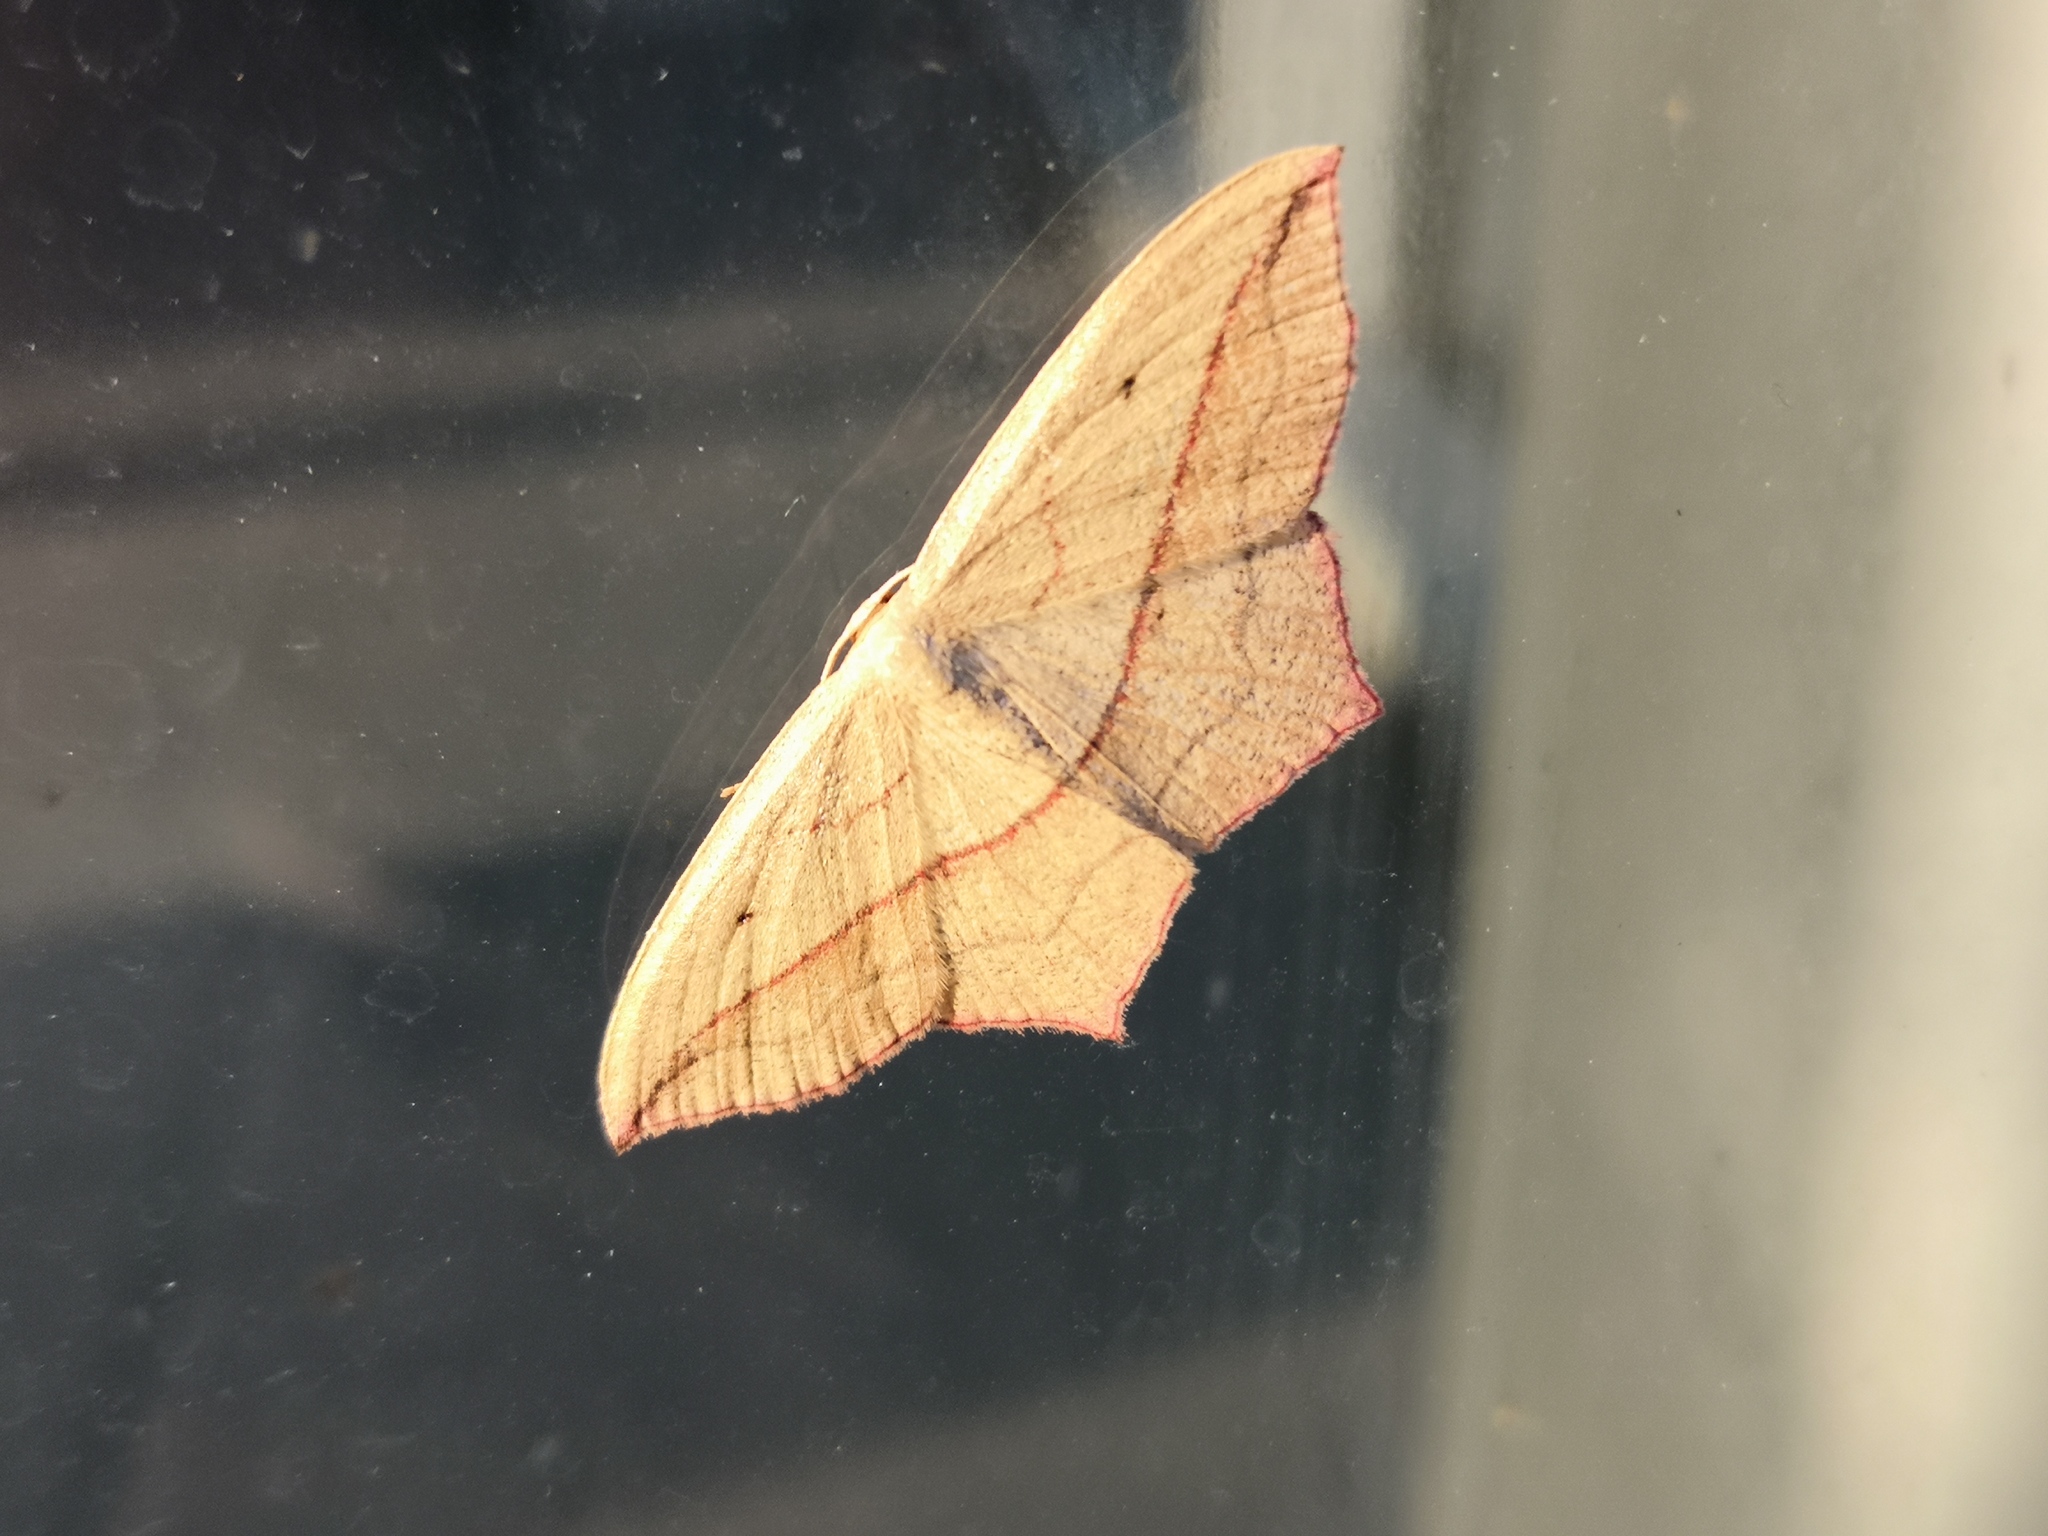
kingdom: Animalia
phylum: Arthropoda
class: Insecta
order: Lepidoptera
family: Geometridae
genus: Timandra
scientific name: Timandra comae
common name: Blood-vein
